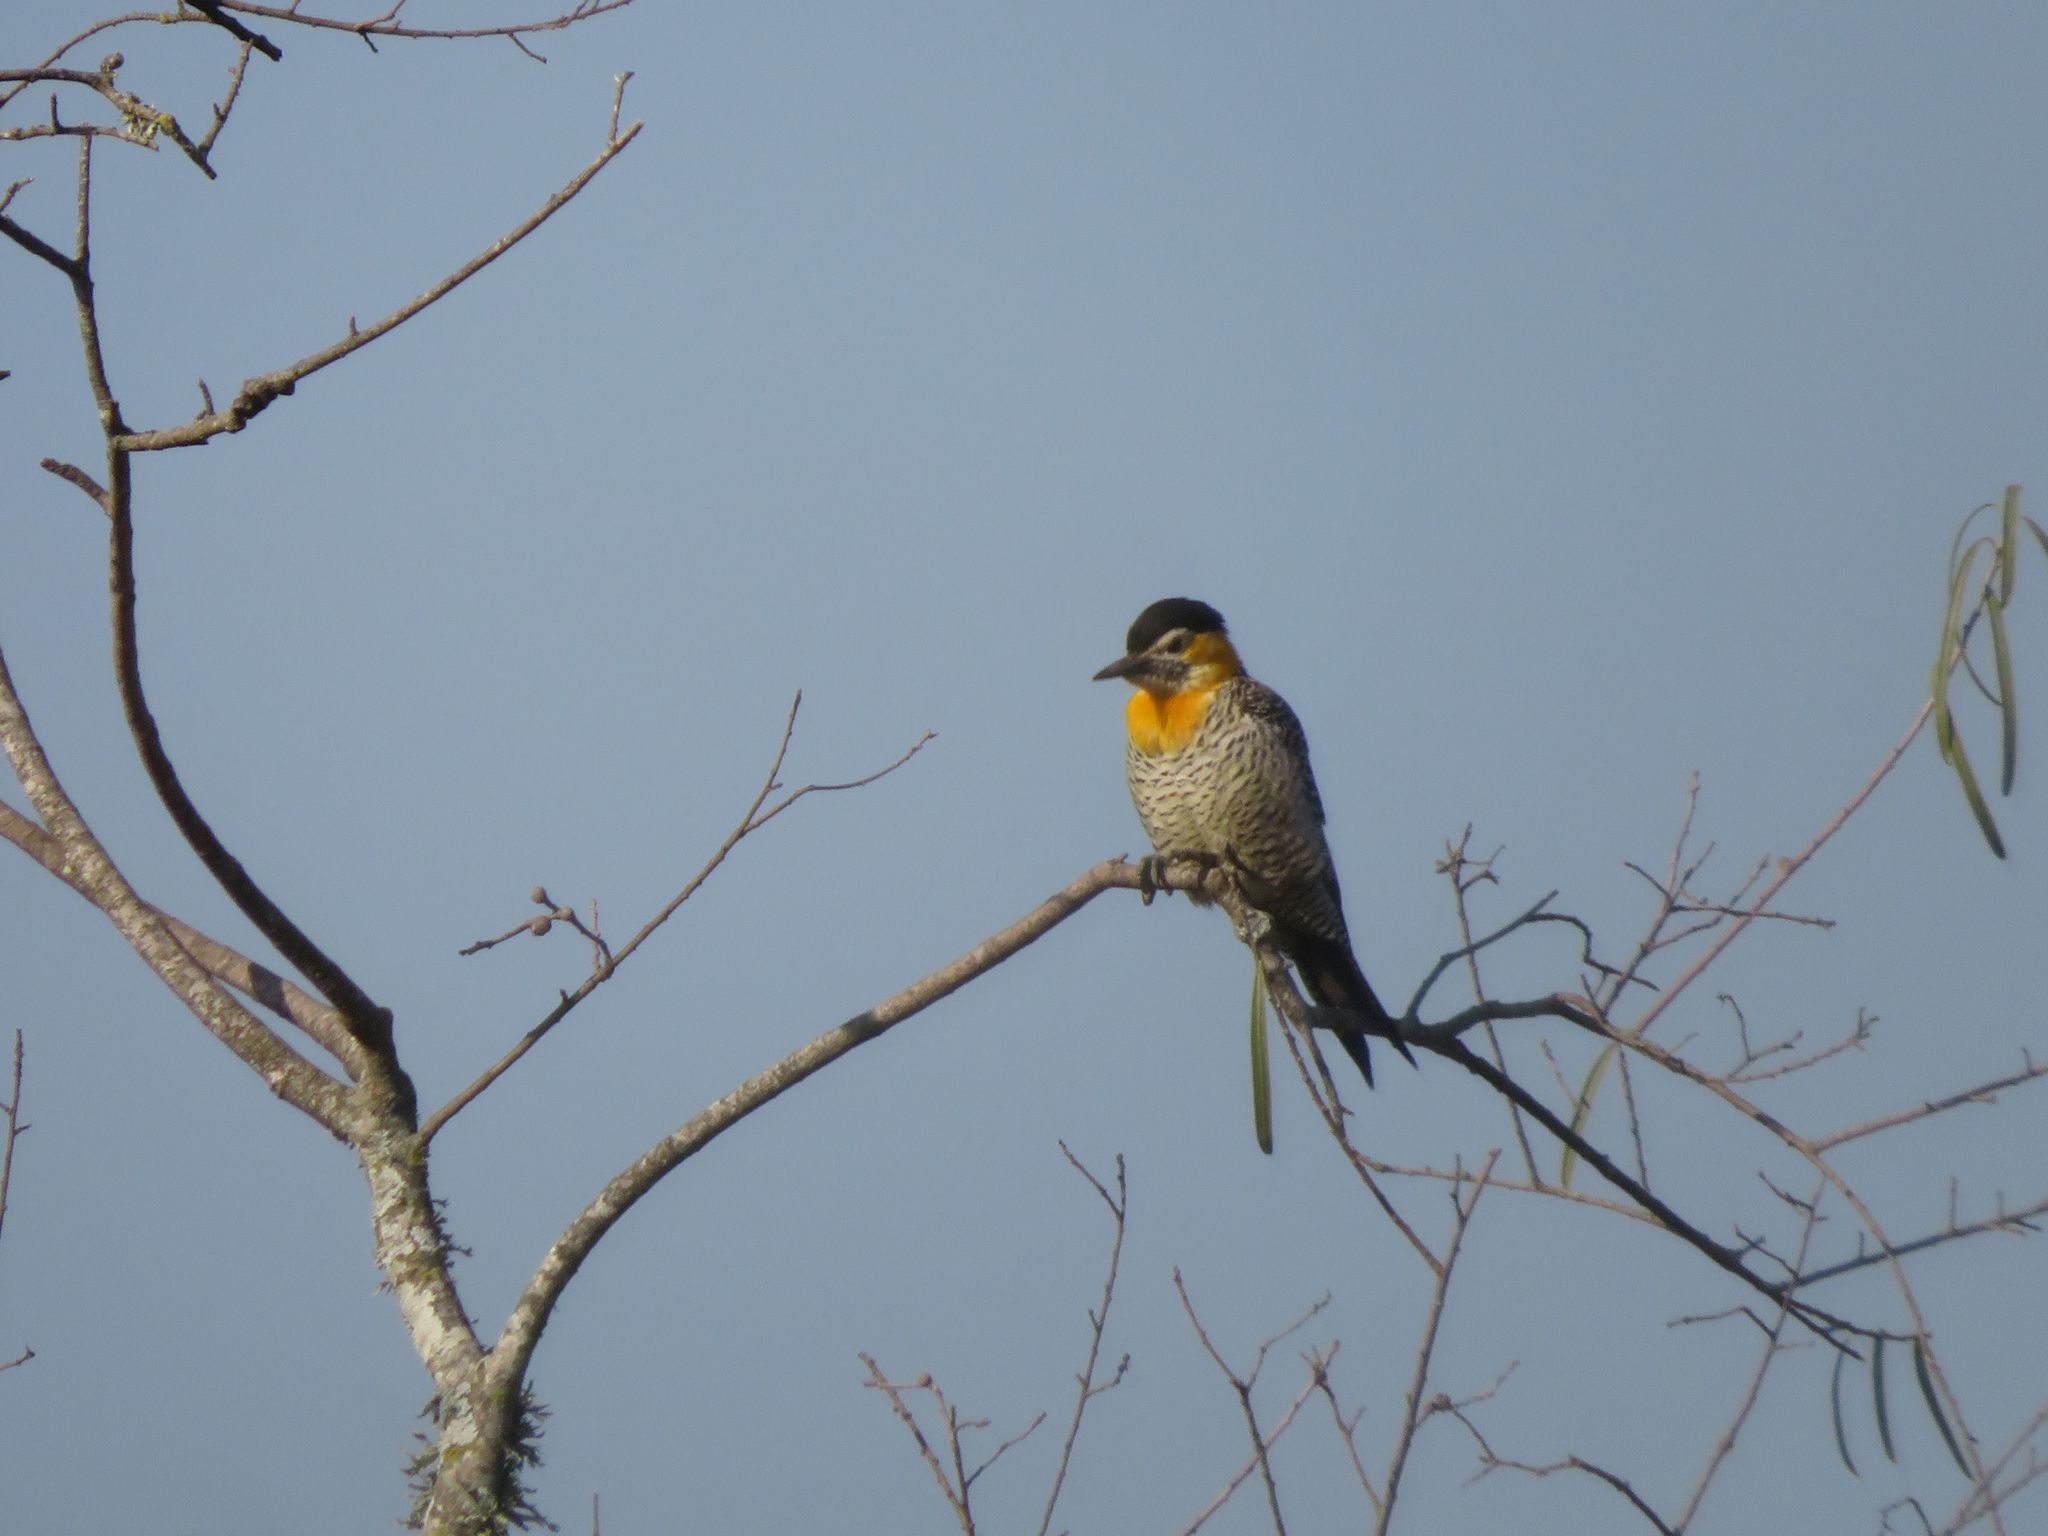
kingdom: Animalia
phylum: Chordata
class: Aves
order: Piciformes
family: Picidae
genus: Colaptes
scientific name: Colaptes campestris
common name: Campo flicker
